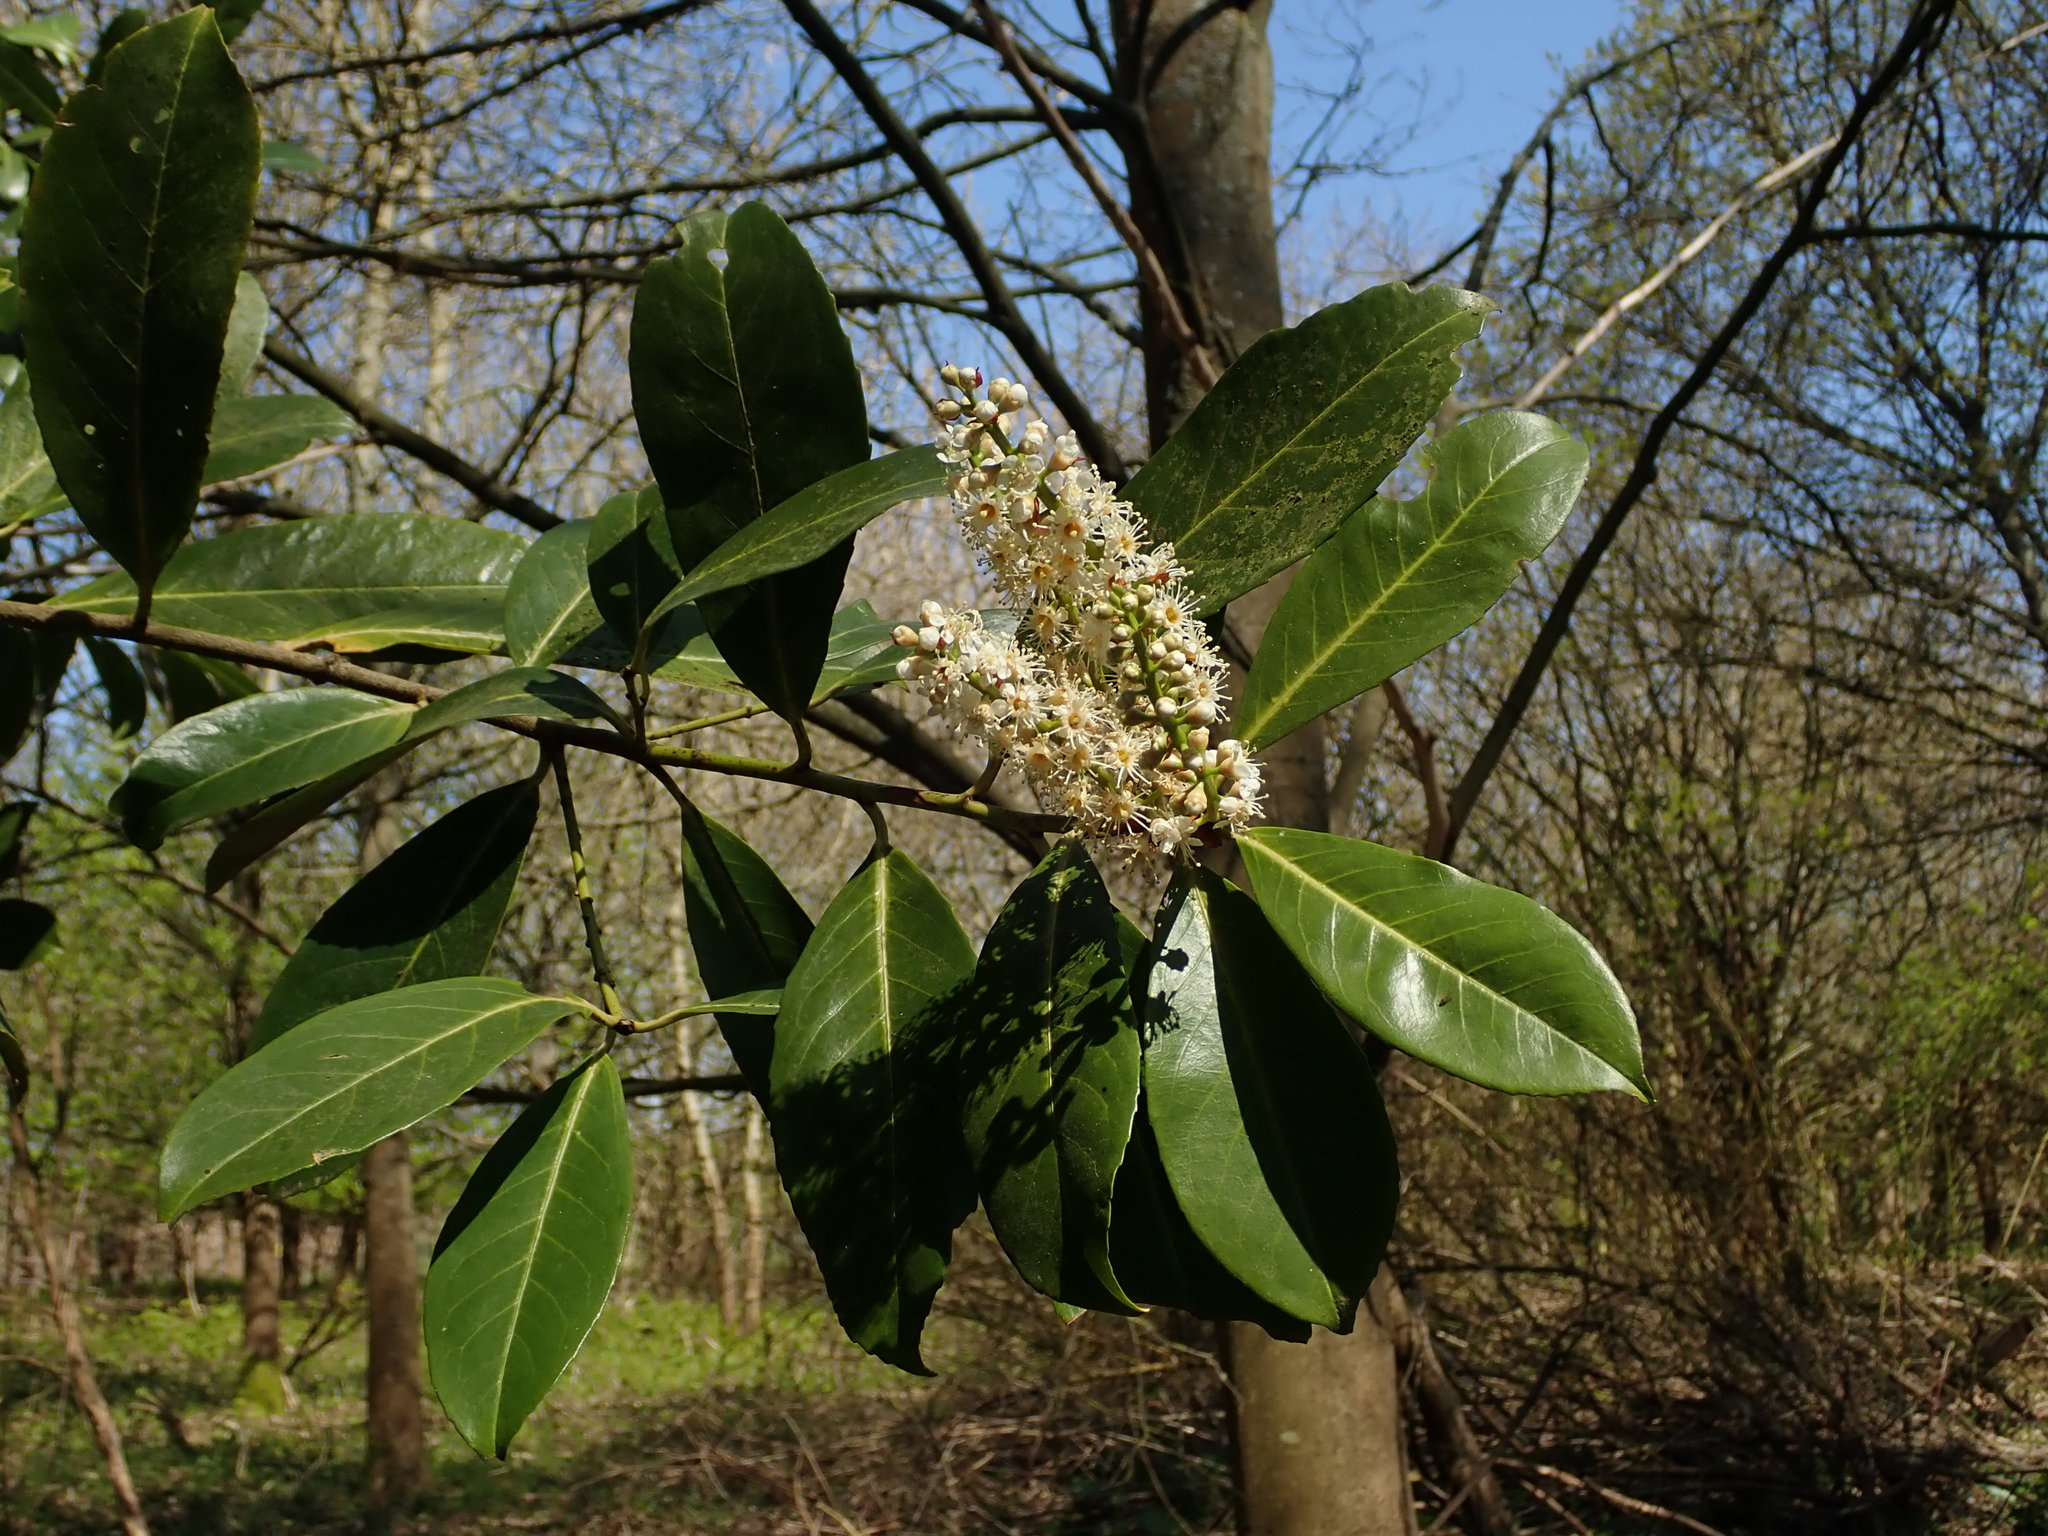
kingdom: Plantae
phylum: Tracheophyta
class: Magnoliopsida
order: Rosales
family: Rosaceae
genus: Prunus
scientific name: Prunus laurocerasus
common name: Cherry laurel
